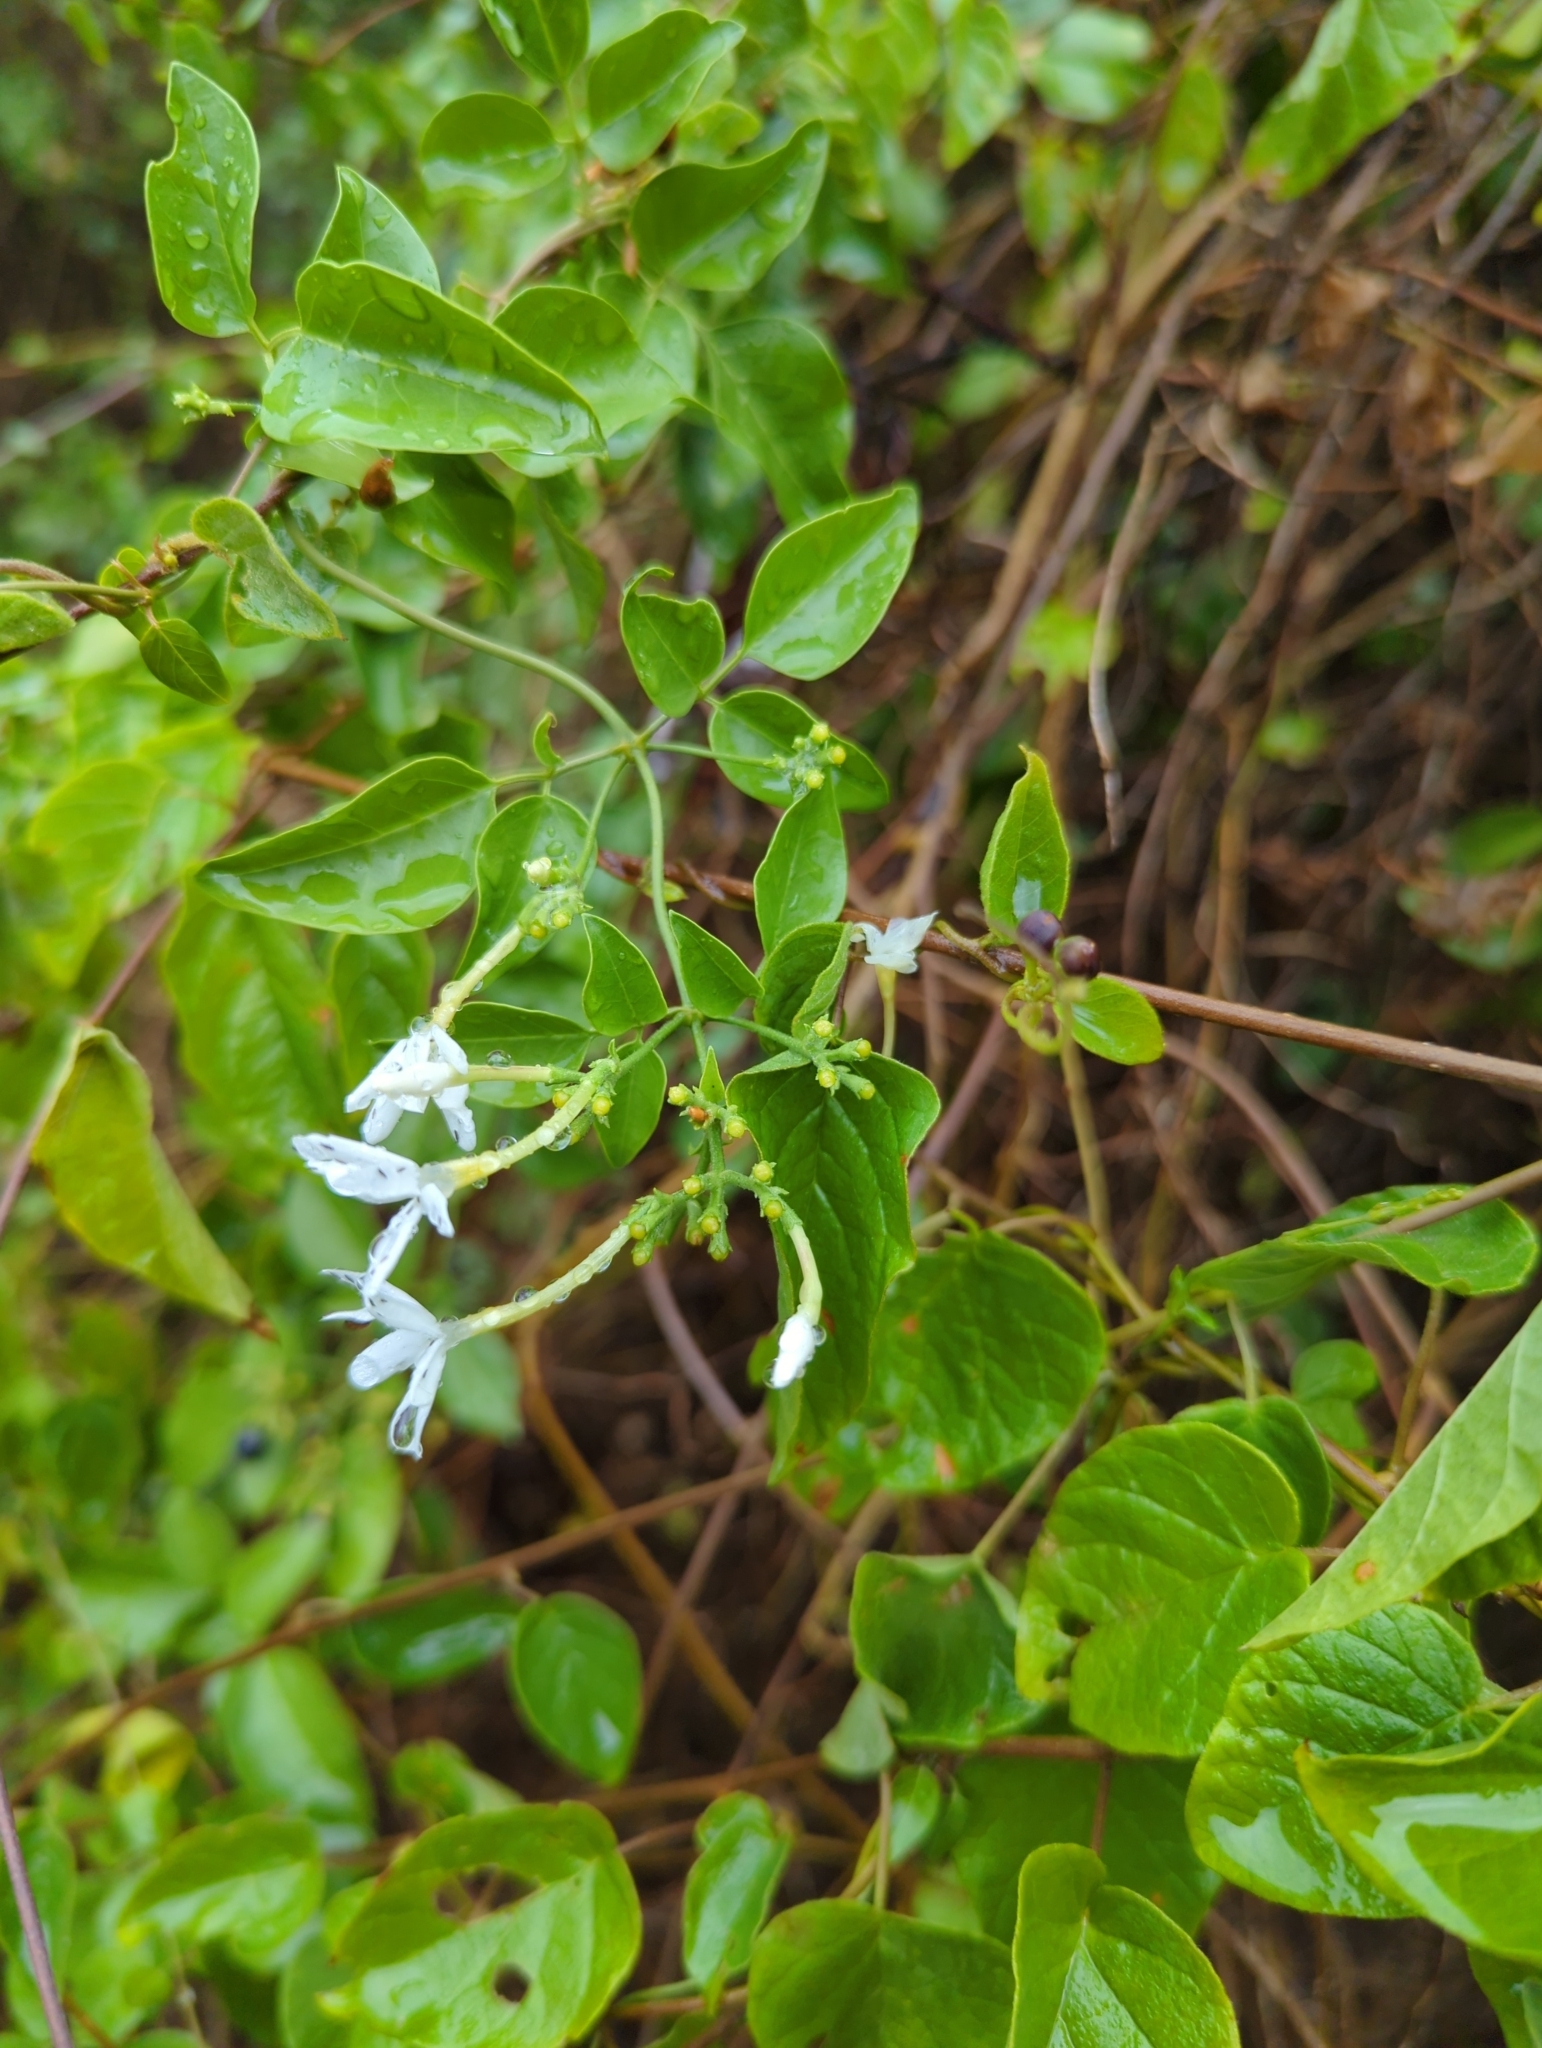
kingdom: Plantae
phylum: Tracheophyta
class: Magnoliopsida
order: Lamiales
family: Oleaceae
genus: Jasminum
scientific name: Jasminum fluminense
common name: Brazilian jasmine
